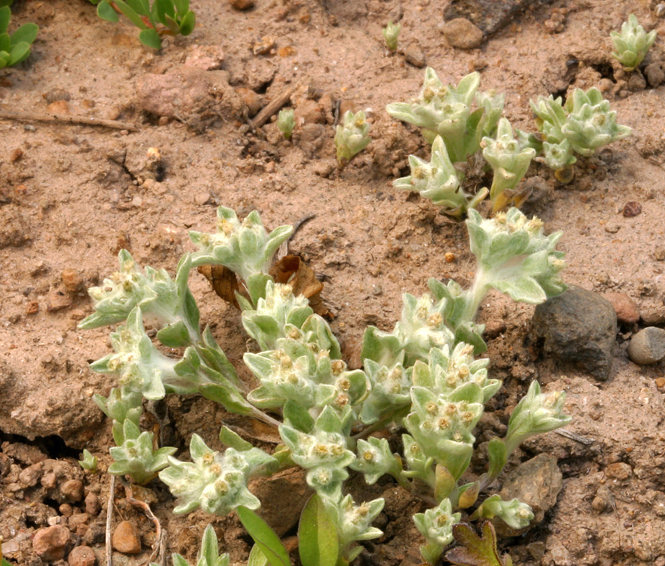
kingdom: Plantae
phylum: Tracheophyta
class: Magnoliopsida
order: Asterales
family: Asteraceae
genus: Gnaphalium
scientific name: Gnaphalium palustre
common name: Western marsh cudweed
